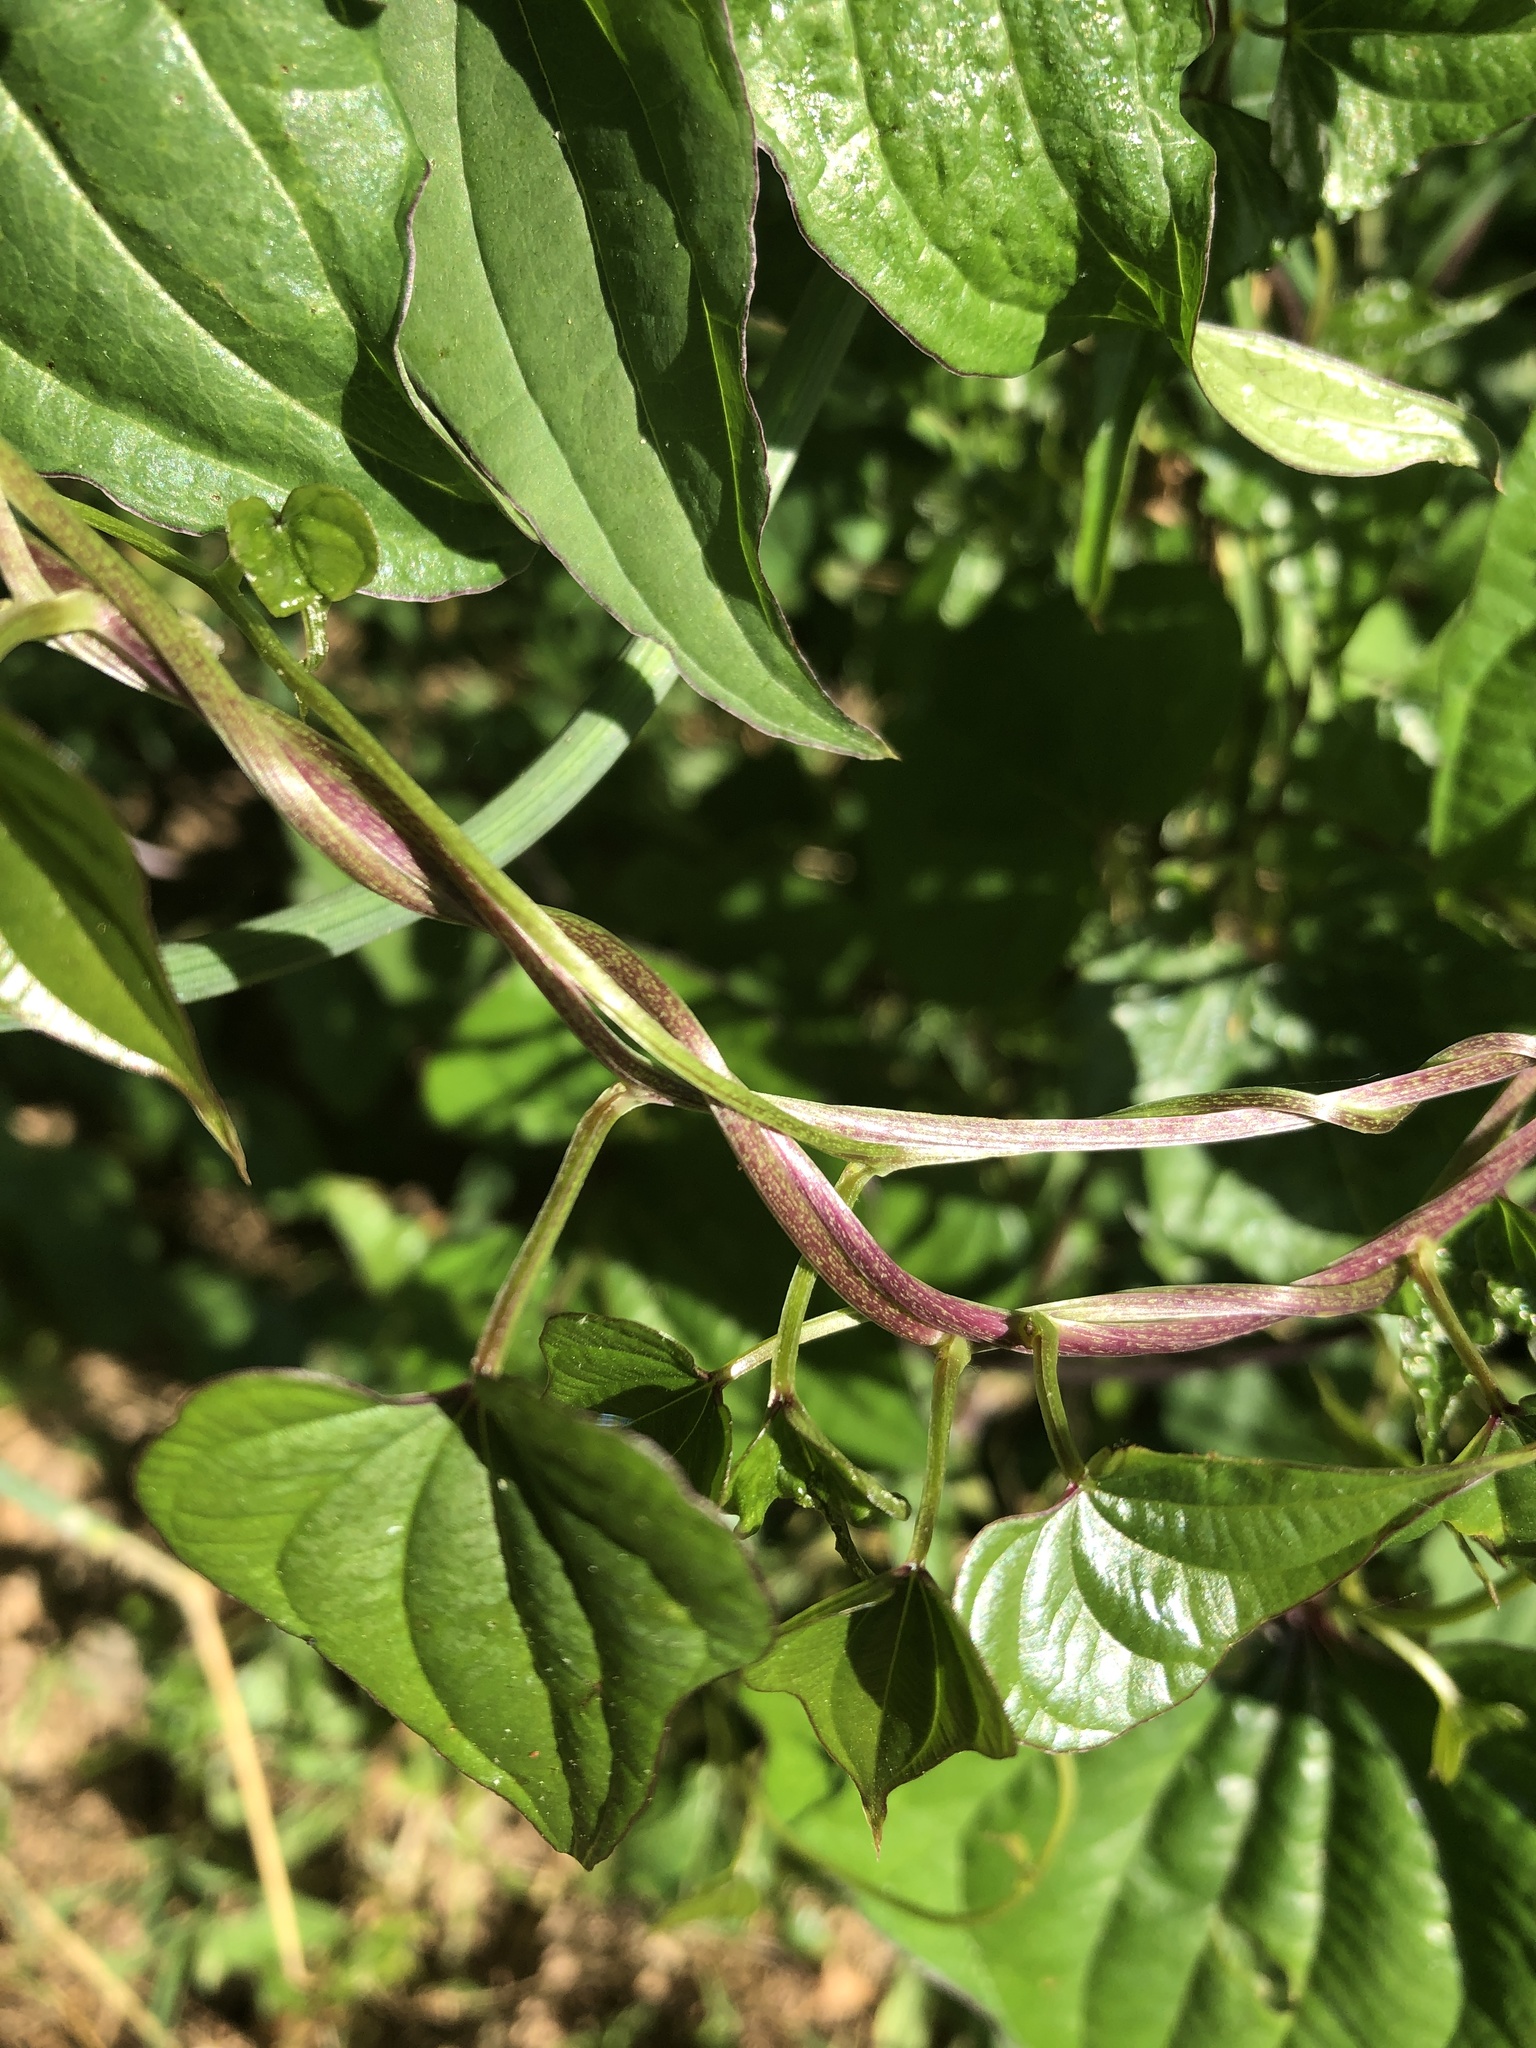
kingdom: Plantae
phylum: Tracheophyta
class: Liliopsida
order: Dioscoreales
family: Dioscoreaceae
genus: Dioscorea
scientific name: Dioscorea polystachya
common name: Chinese yam
